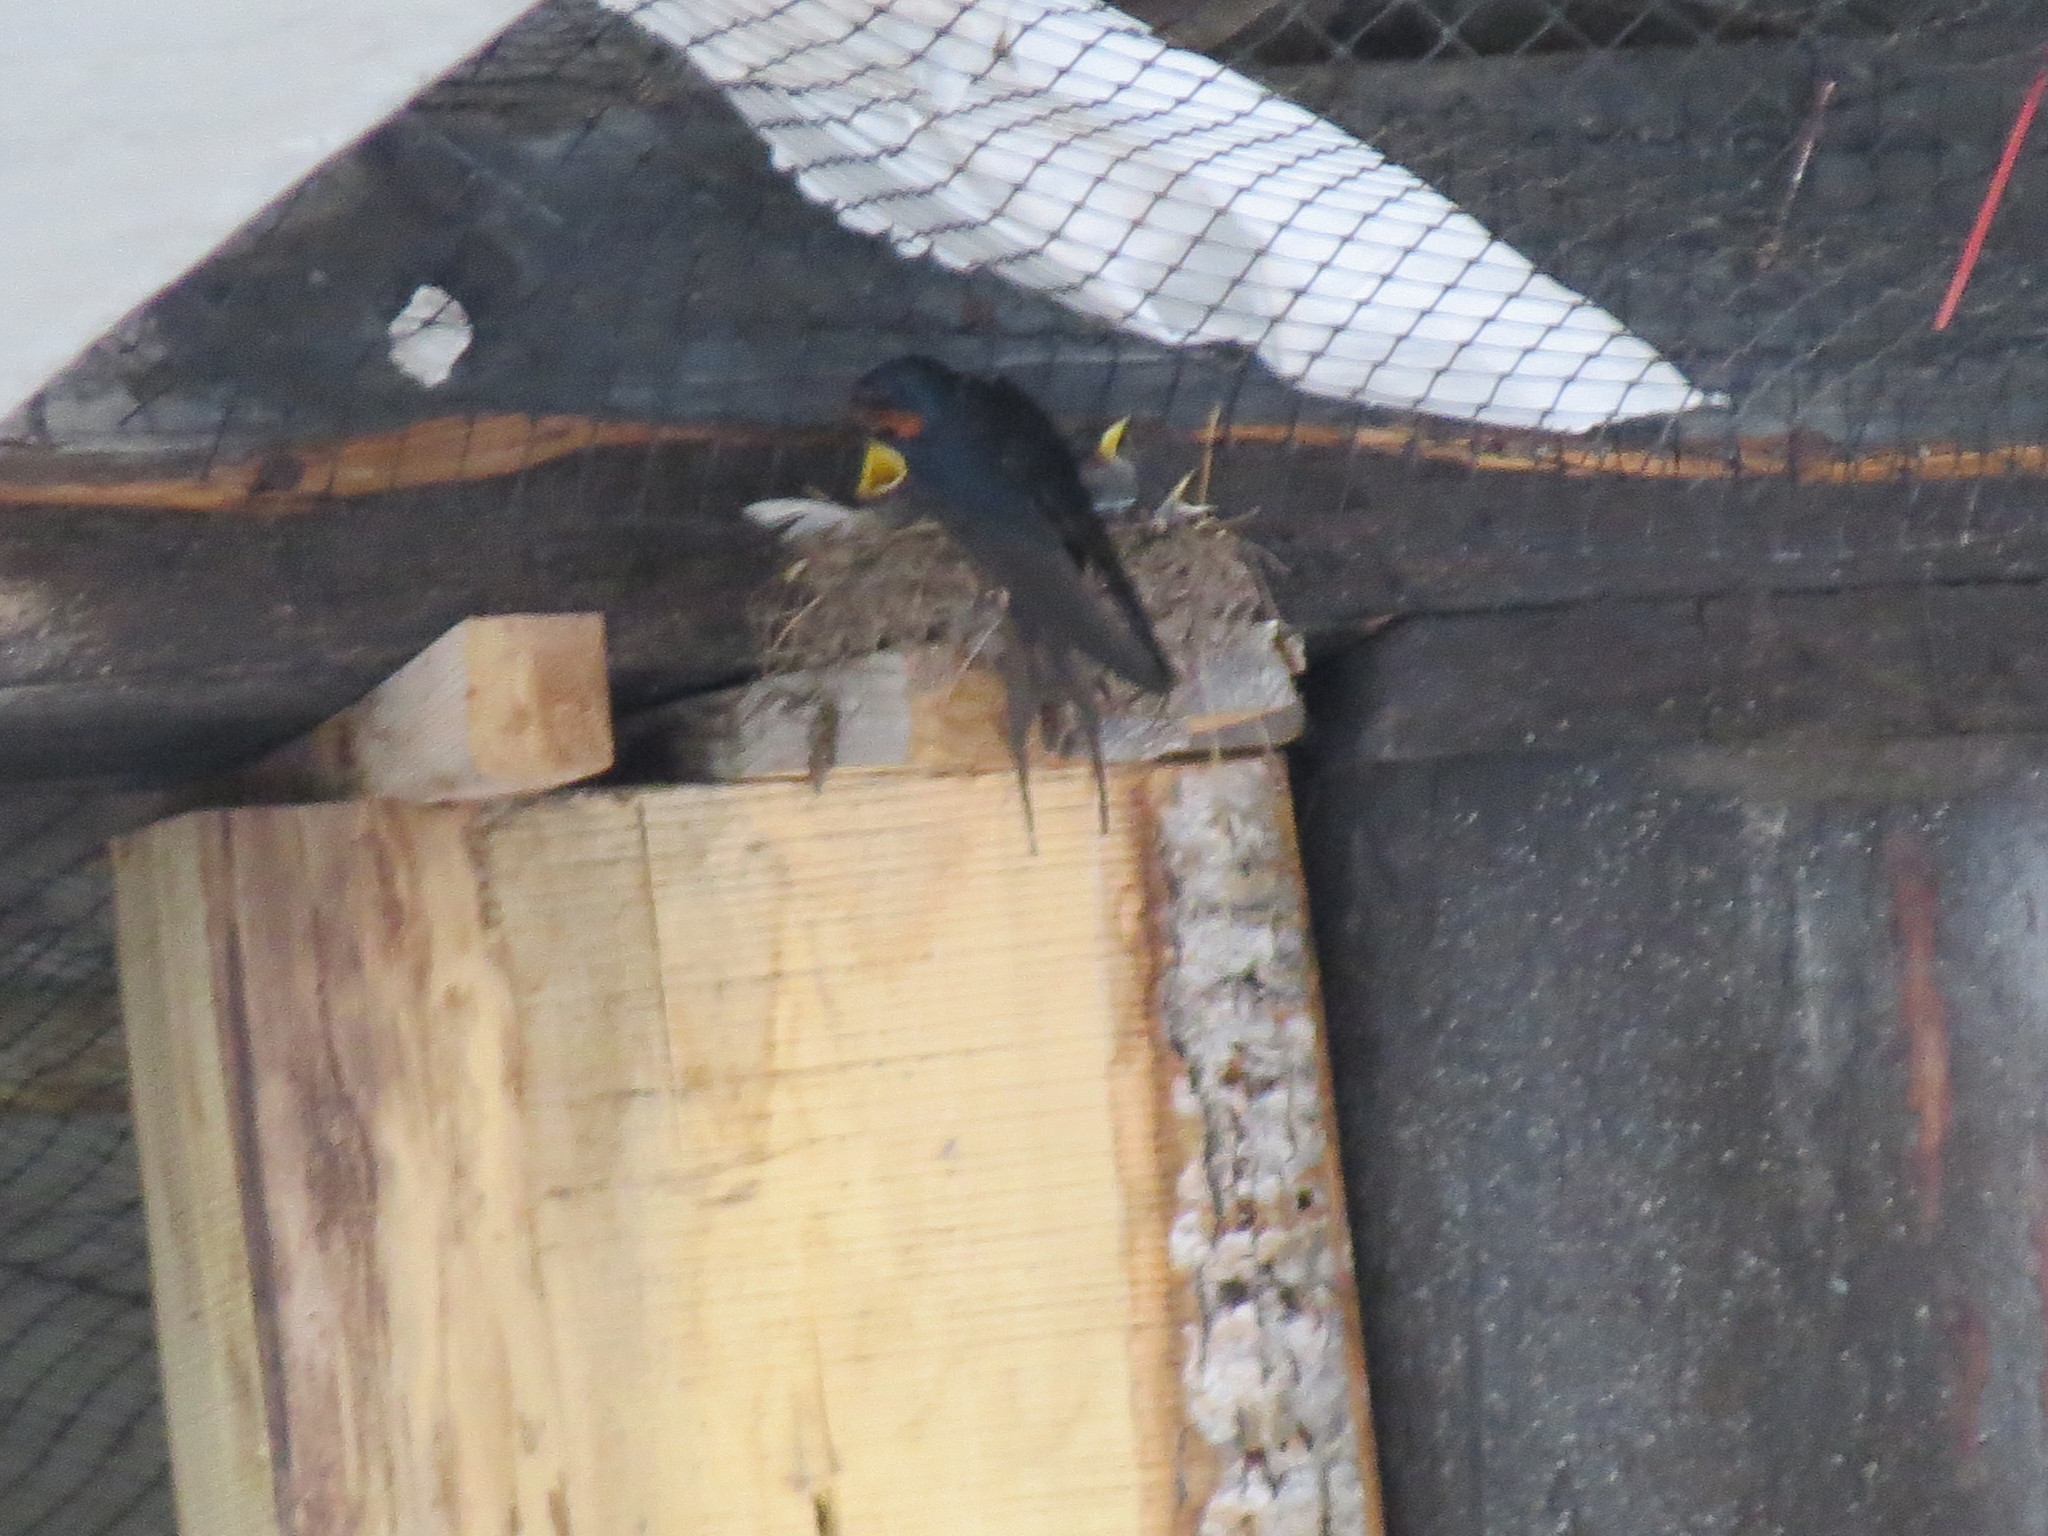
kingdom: Animalia
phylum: Chordata
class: Aves
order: Passeriformes
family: Hirundinidae
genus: Hirundo
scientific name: Hirundo rustica
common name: Barn swallow
